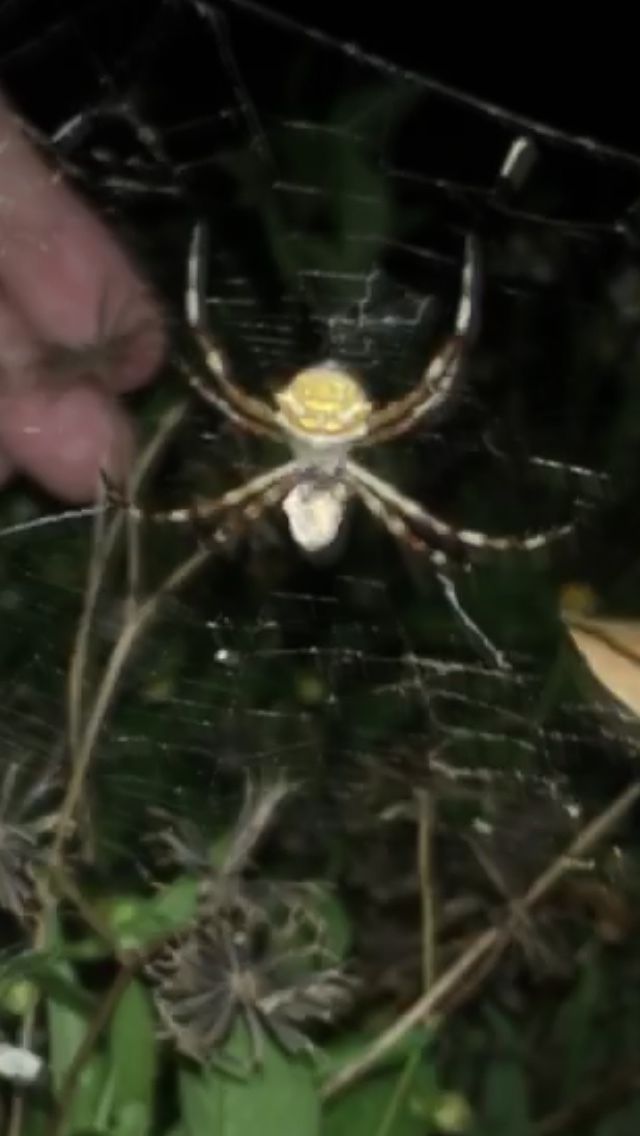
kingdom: Animalia
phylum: Arthropoda
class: Arachnida
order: Araneae
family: Araneidae
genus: Argiope
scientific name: Argiope argentata
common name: Orb weavers
